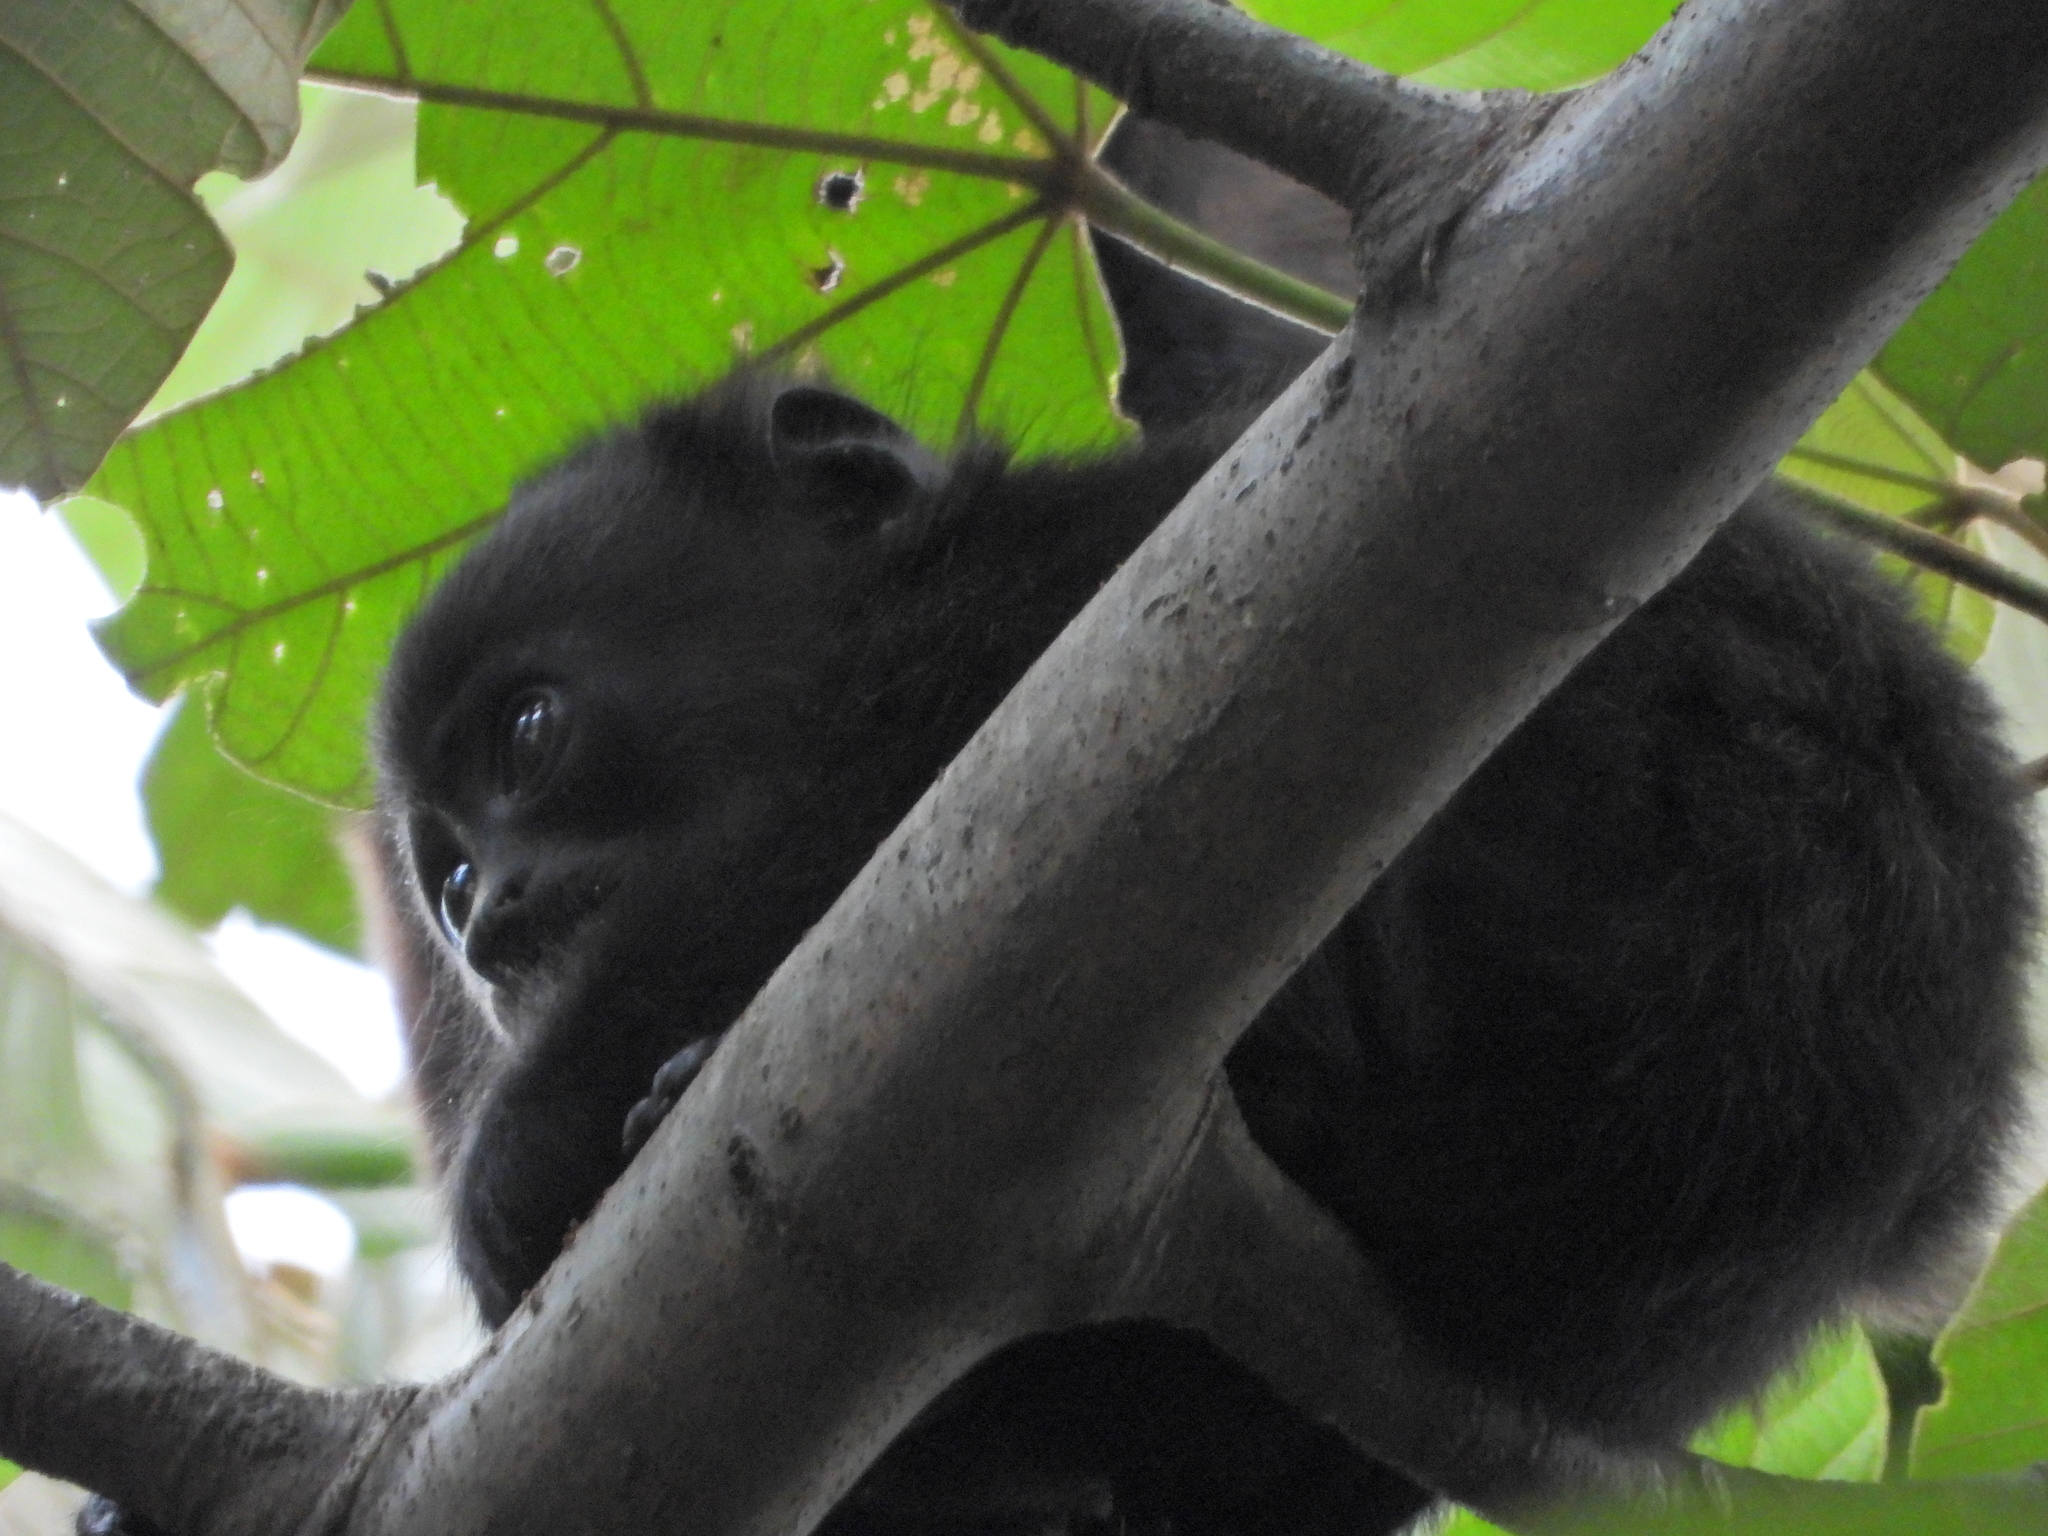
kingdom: Animalia
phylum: Chordata
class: Mammalia
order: Primates
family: Atelidae
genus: Alouatta
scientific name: Alouatta palliata
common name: Mantled howler
